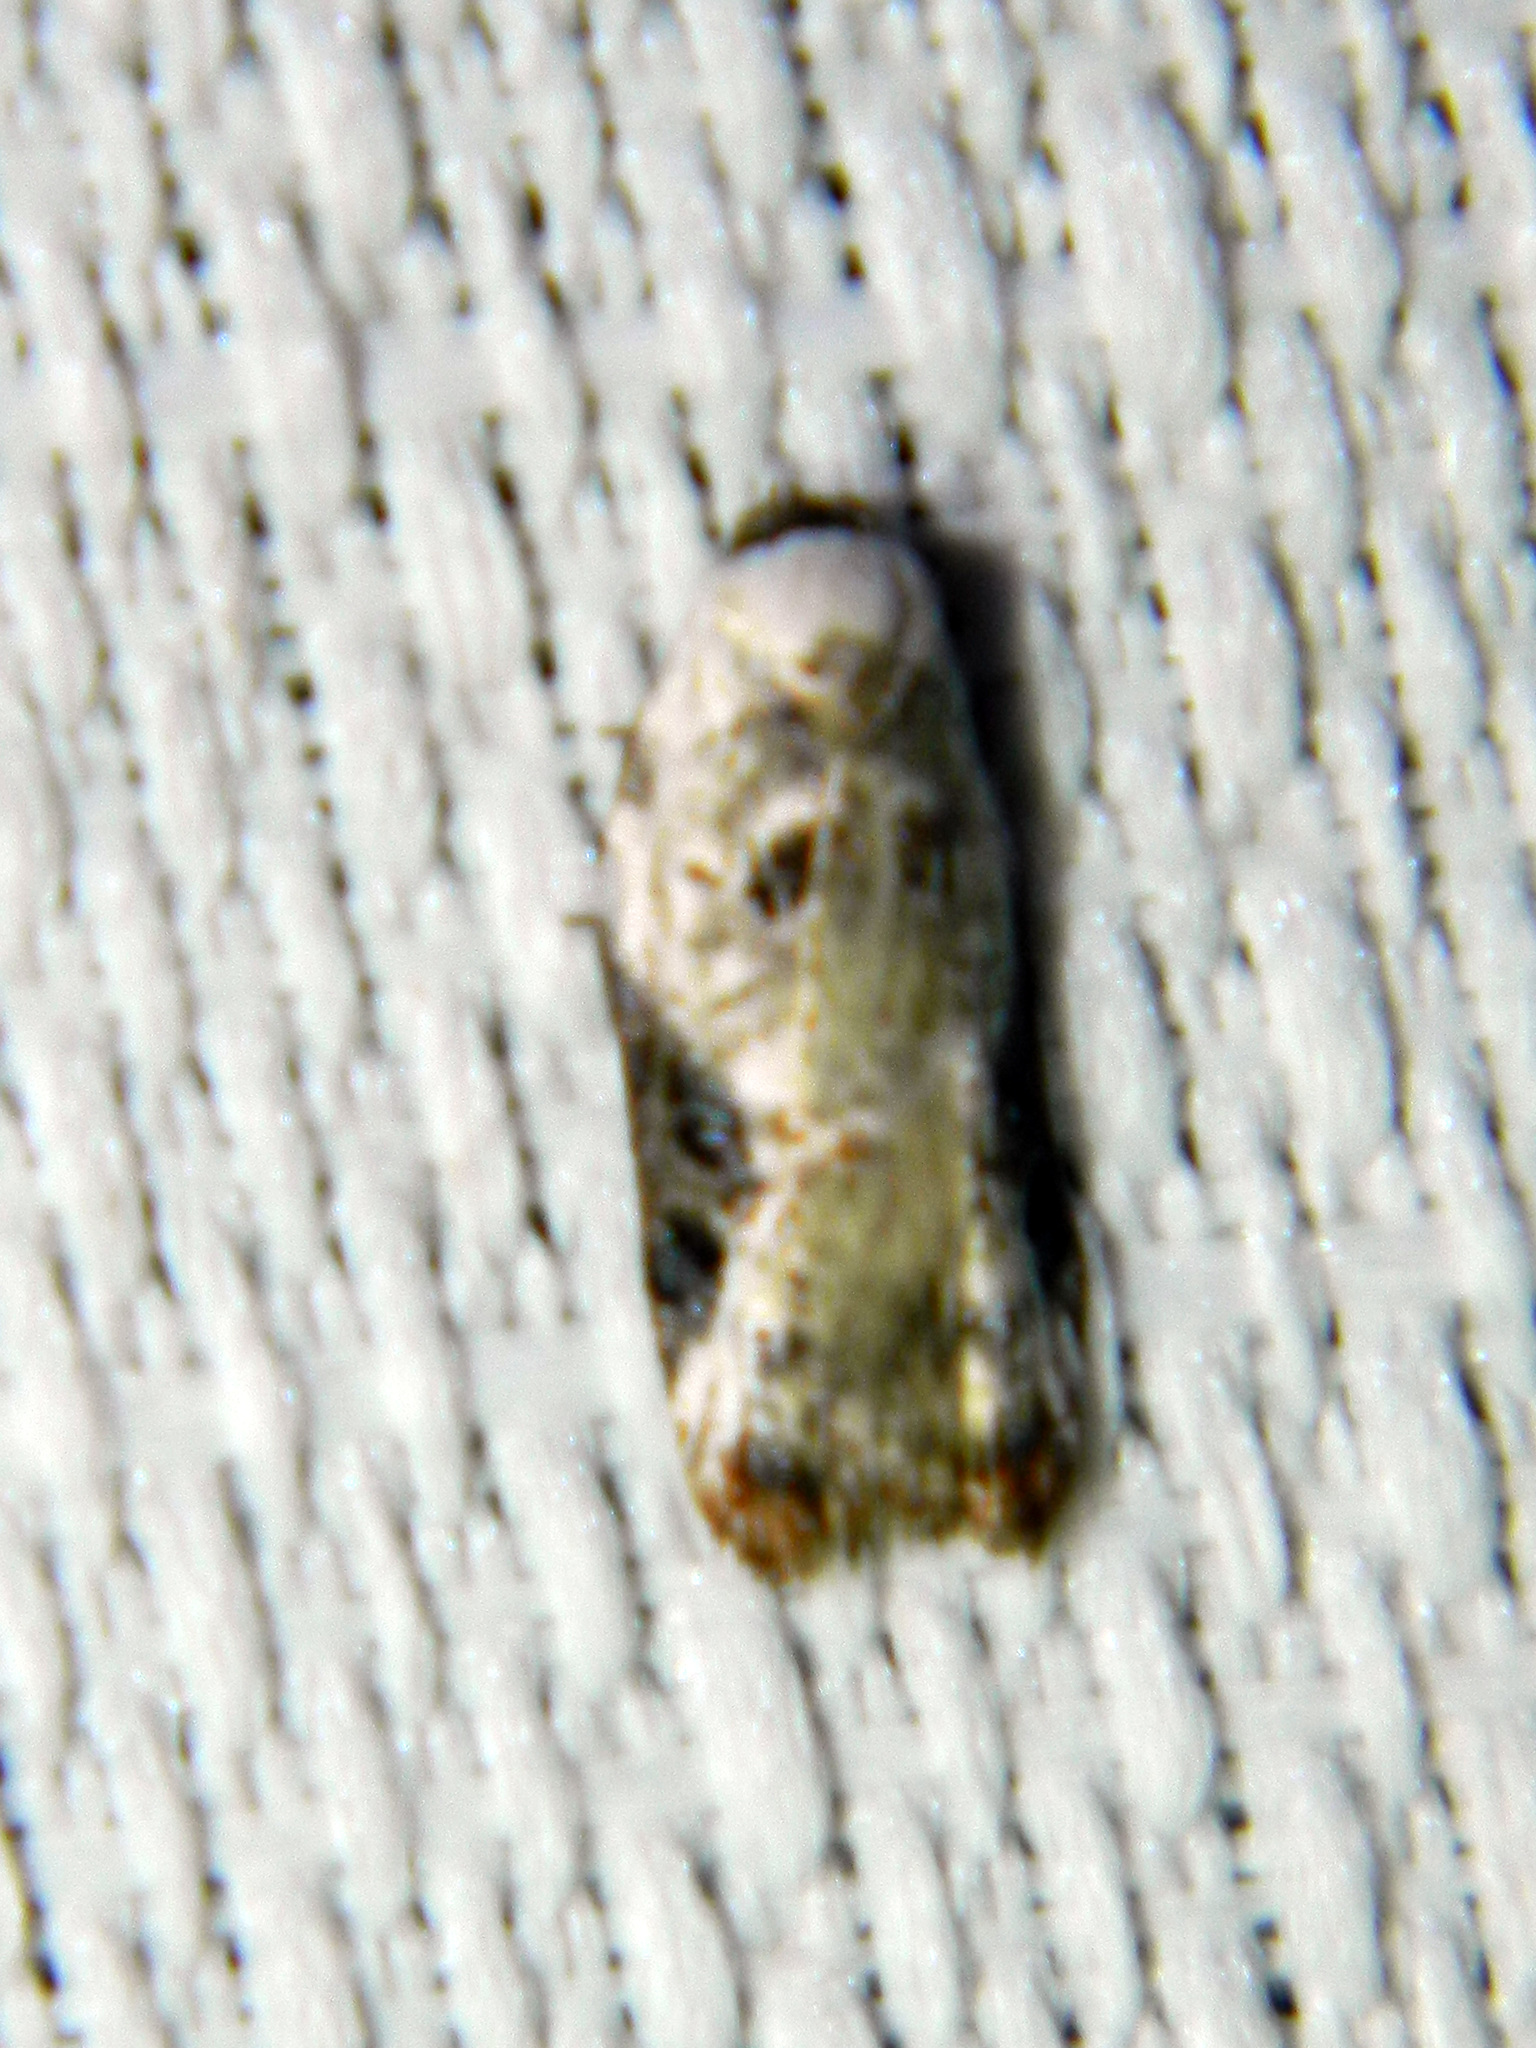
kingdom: Animalia
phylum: Arthropoda
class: Insecta
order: Lepidoptera
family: Tortricidae
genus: Acleris
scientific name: Acleris nivisellana
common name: Snowy-shouldered acleris moth
